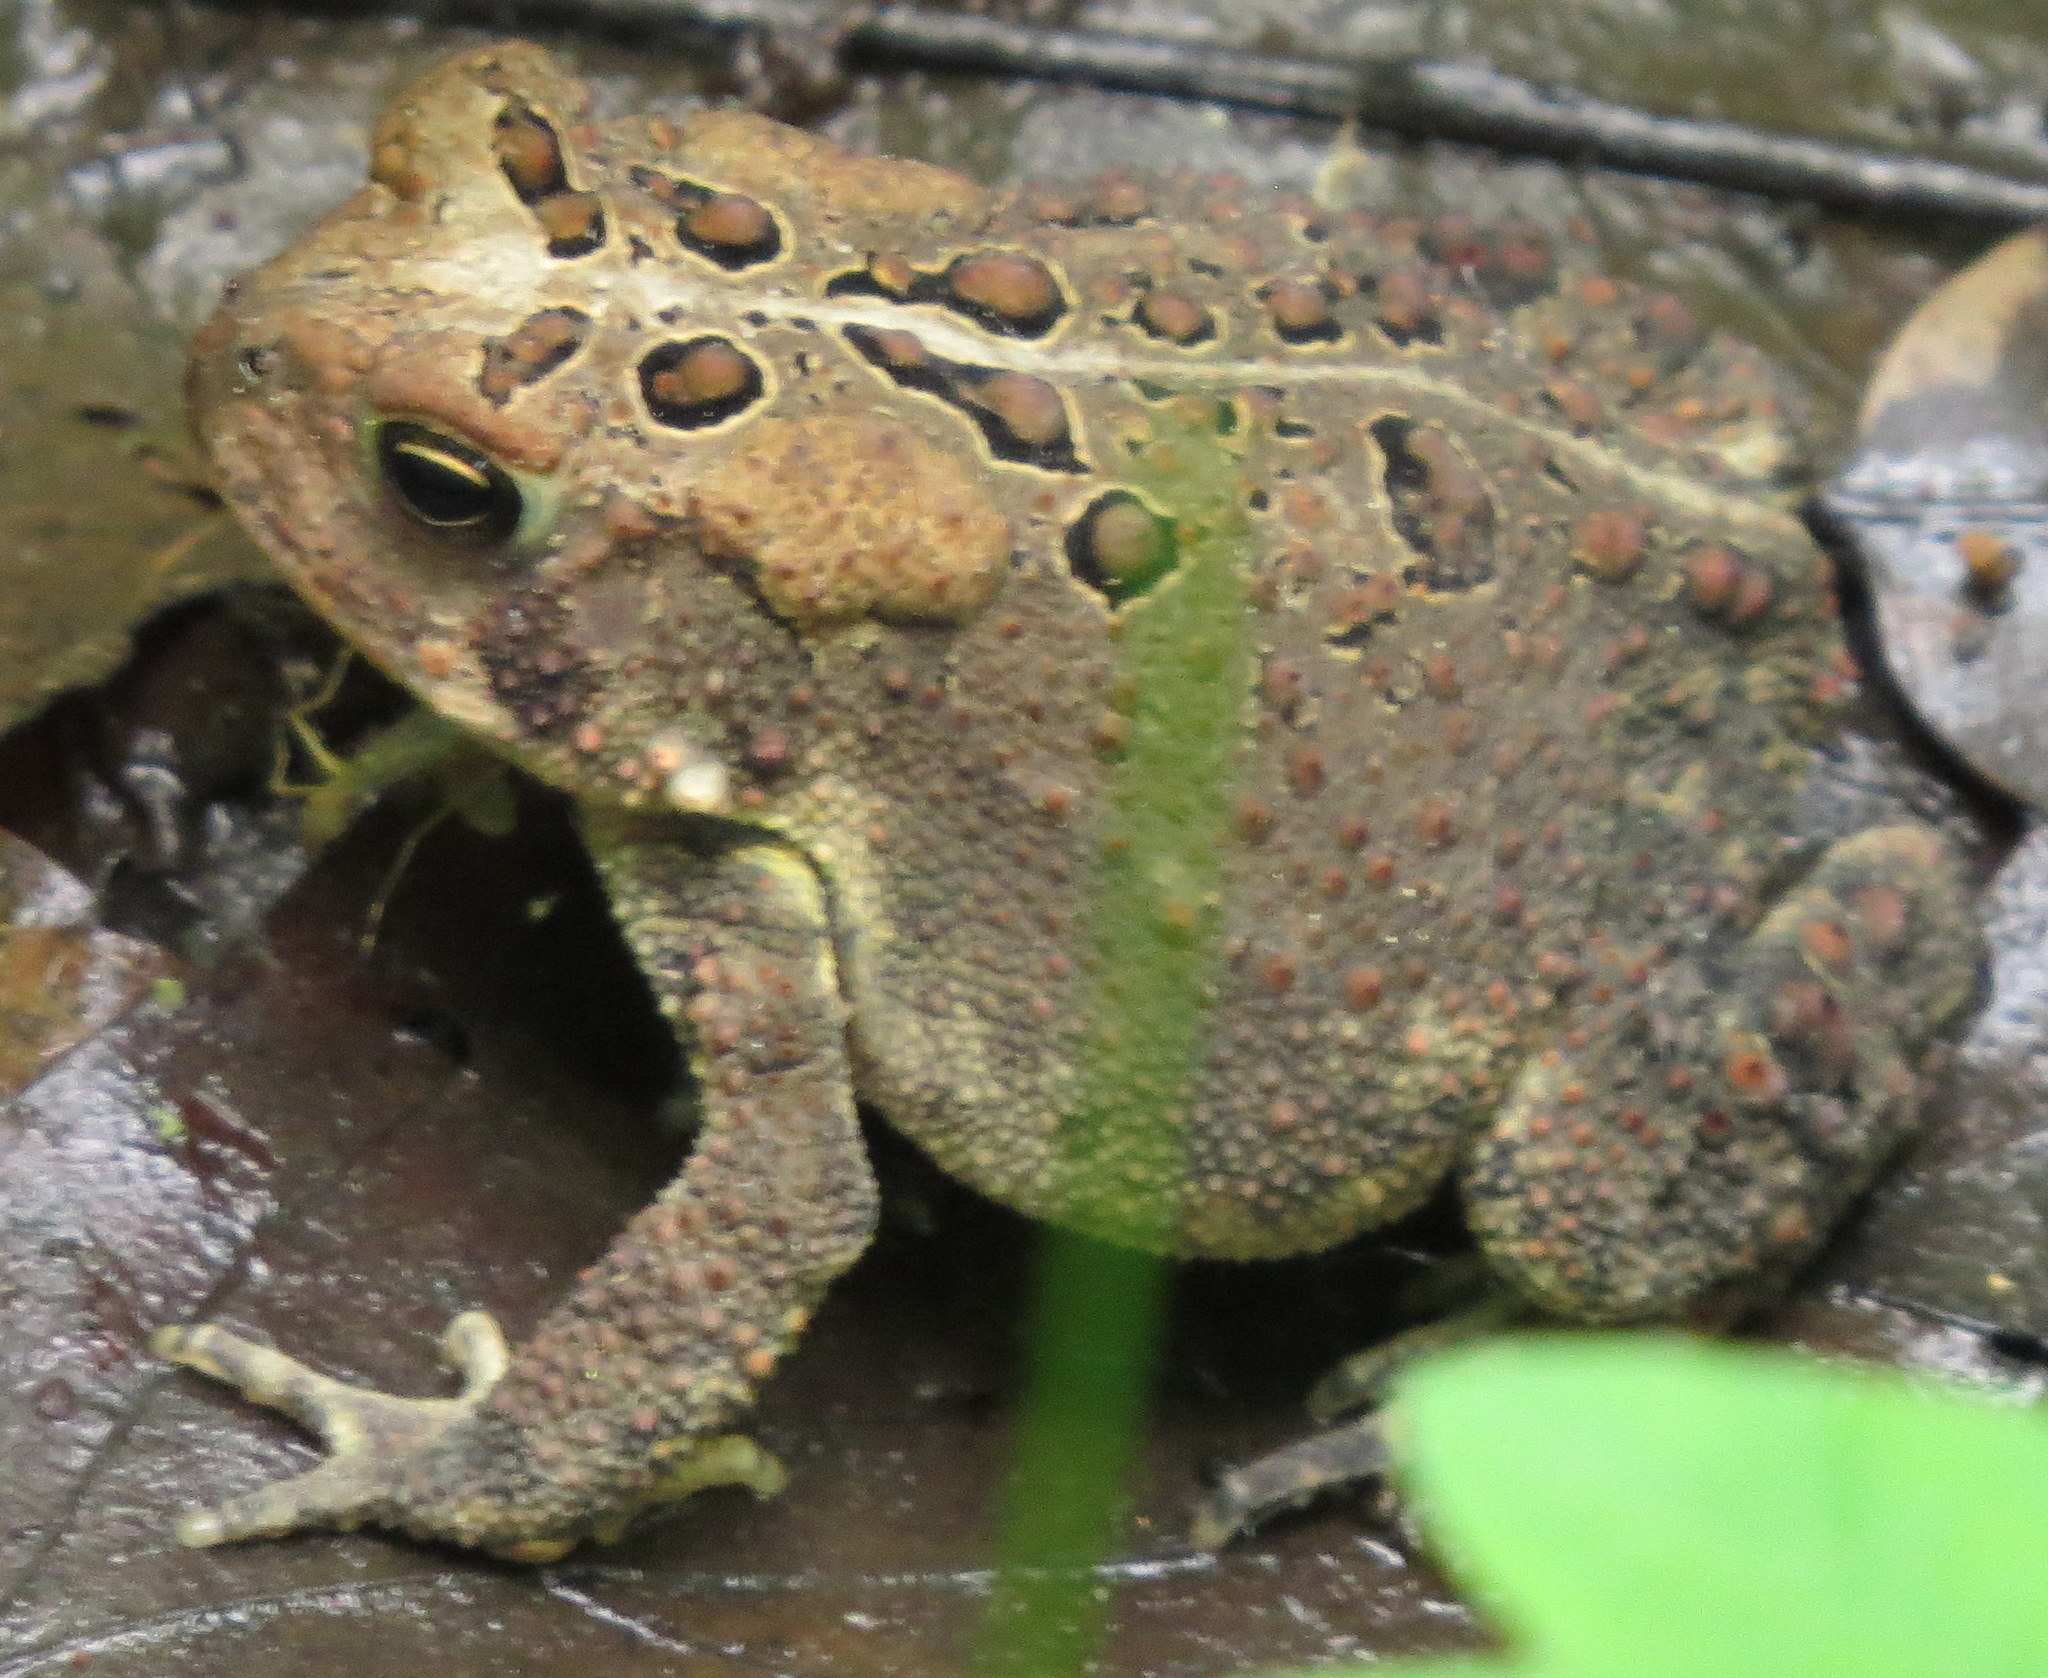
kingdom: Animalia
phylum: Chordata
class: Amphibia
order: Anura
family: Bufonidae
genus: Anaxyrus
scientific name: Anaxyrus americanus
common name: American toad
